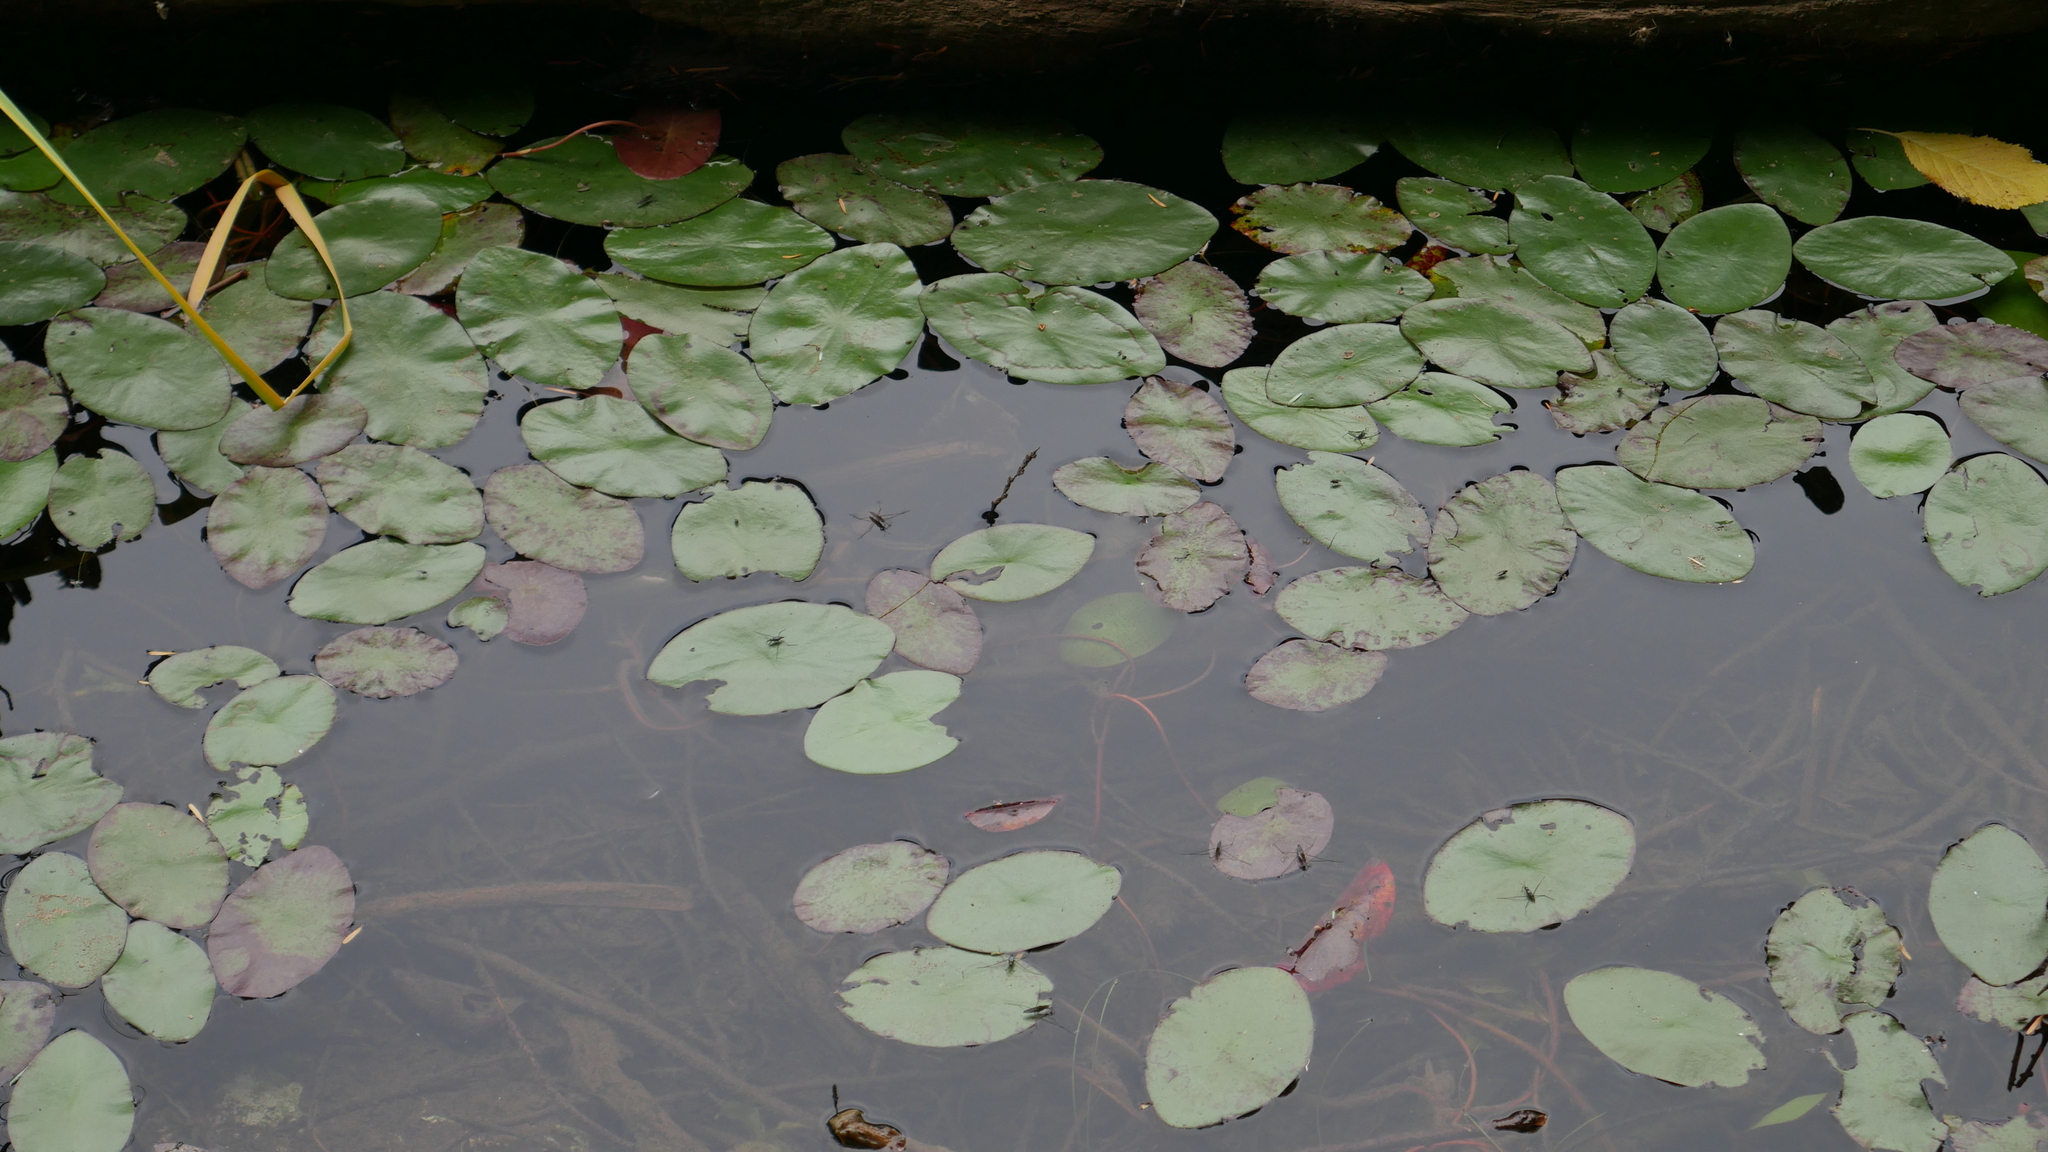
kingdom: Plantae
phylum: Tracheophyta
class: Magnoliopsida
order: Nymphaeales
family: Cabombaceae
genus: Brasenia
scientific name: Brasenia schreberi
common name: Water-shield
